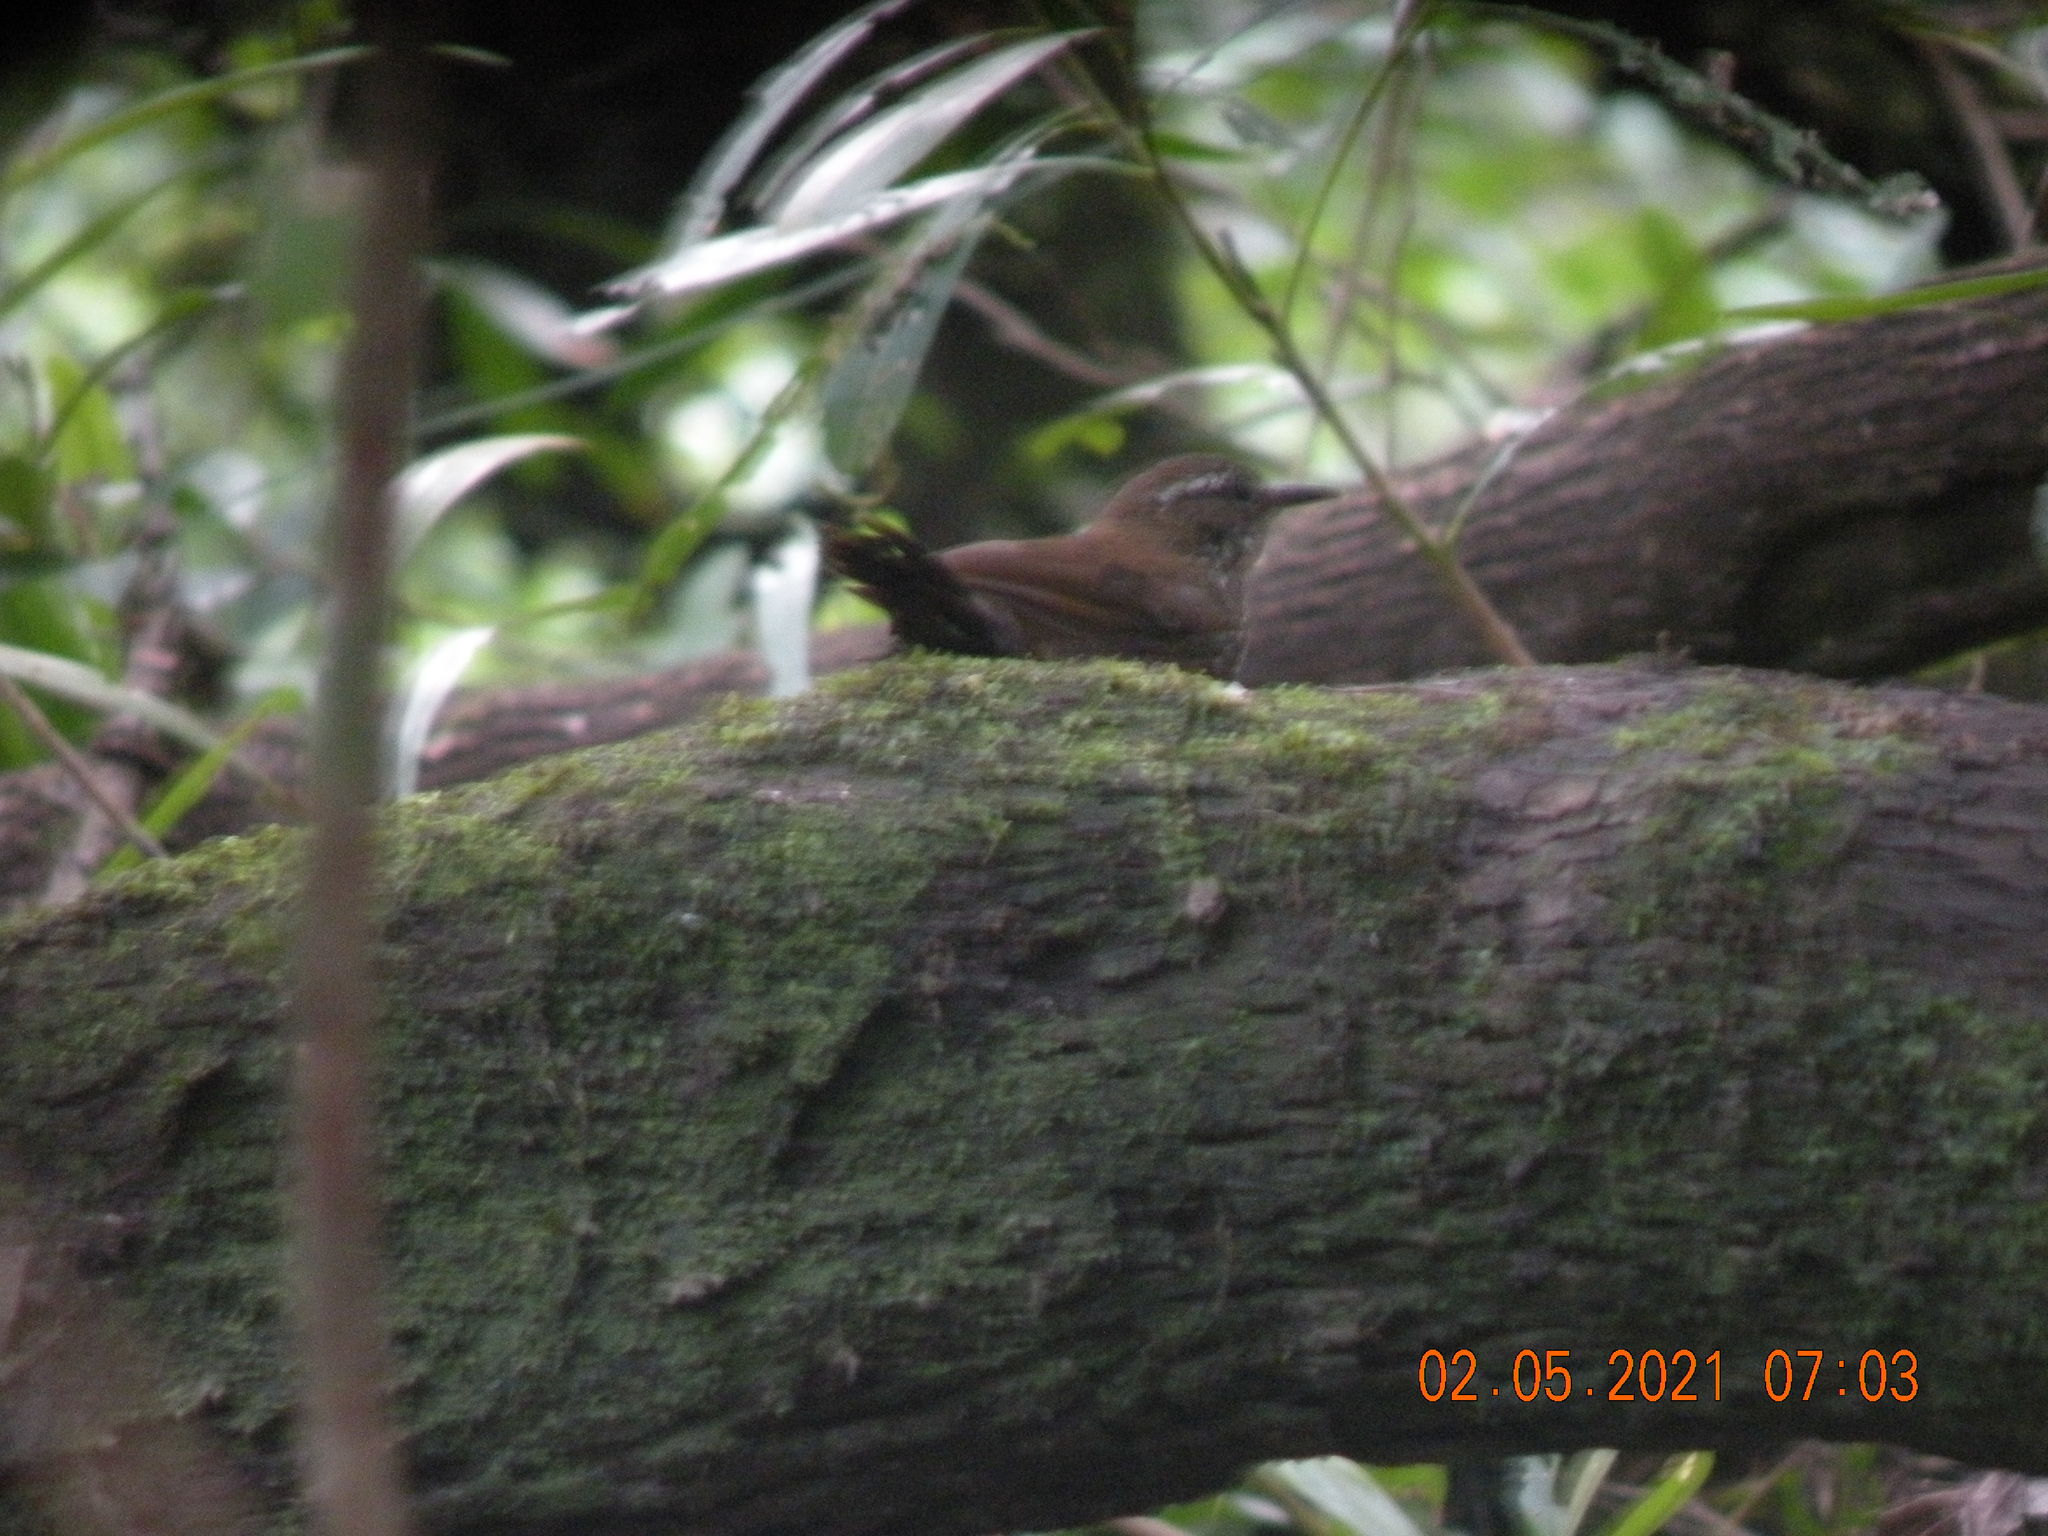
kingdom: Animalia
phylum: Chordata
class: Aves
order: Passeriformes
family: Furnariidae
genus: Lochmias
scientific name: Lochmias nematura
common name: Sharp-tailed streamcreeper
